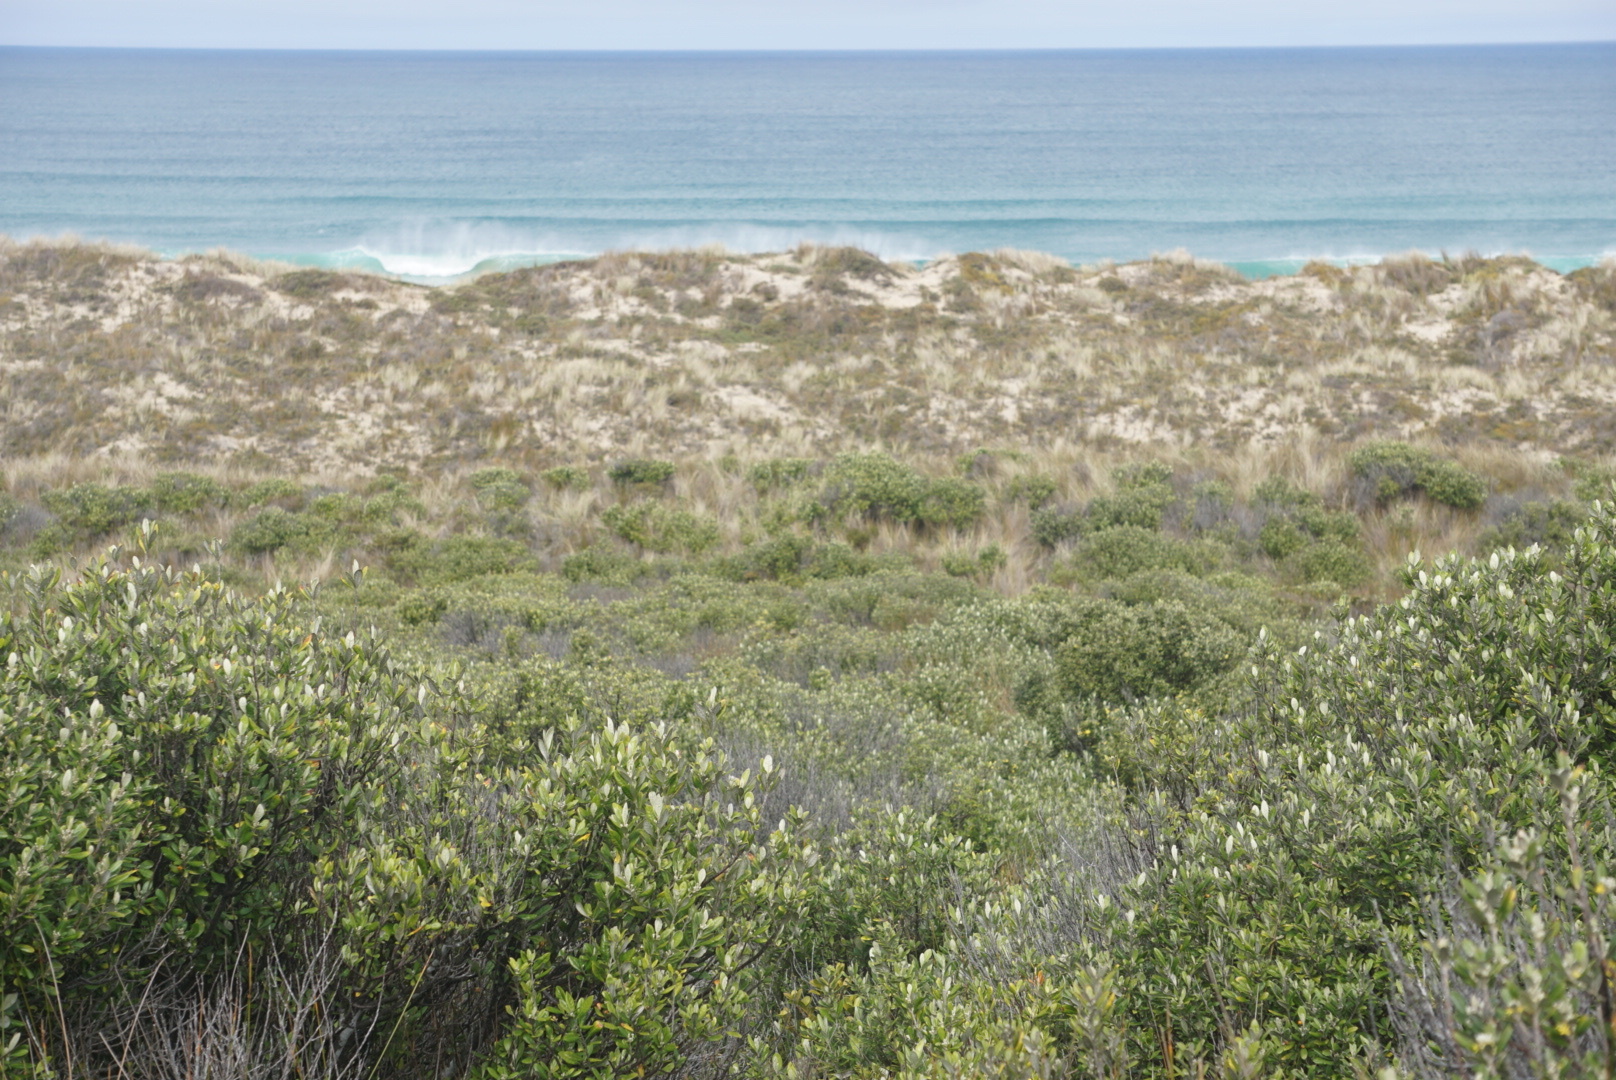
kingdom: Plantae
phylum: Tracheophyta
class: Magnoliopsida
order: Asterales
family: Argophyllaceae
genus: Corokia
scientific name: Corokia macrocarpa
